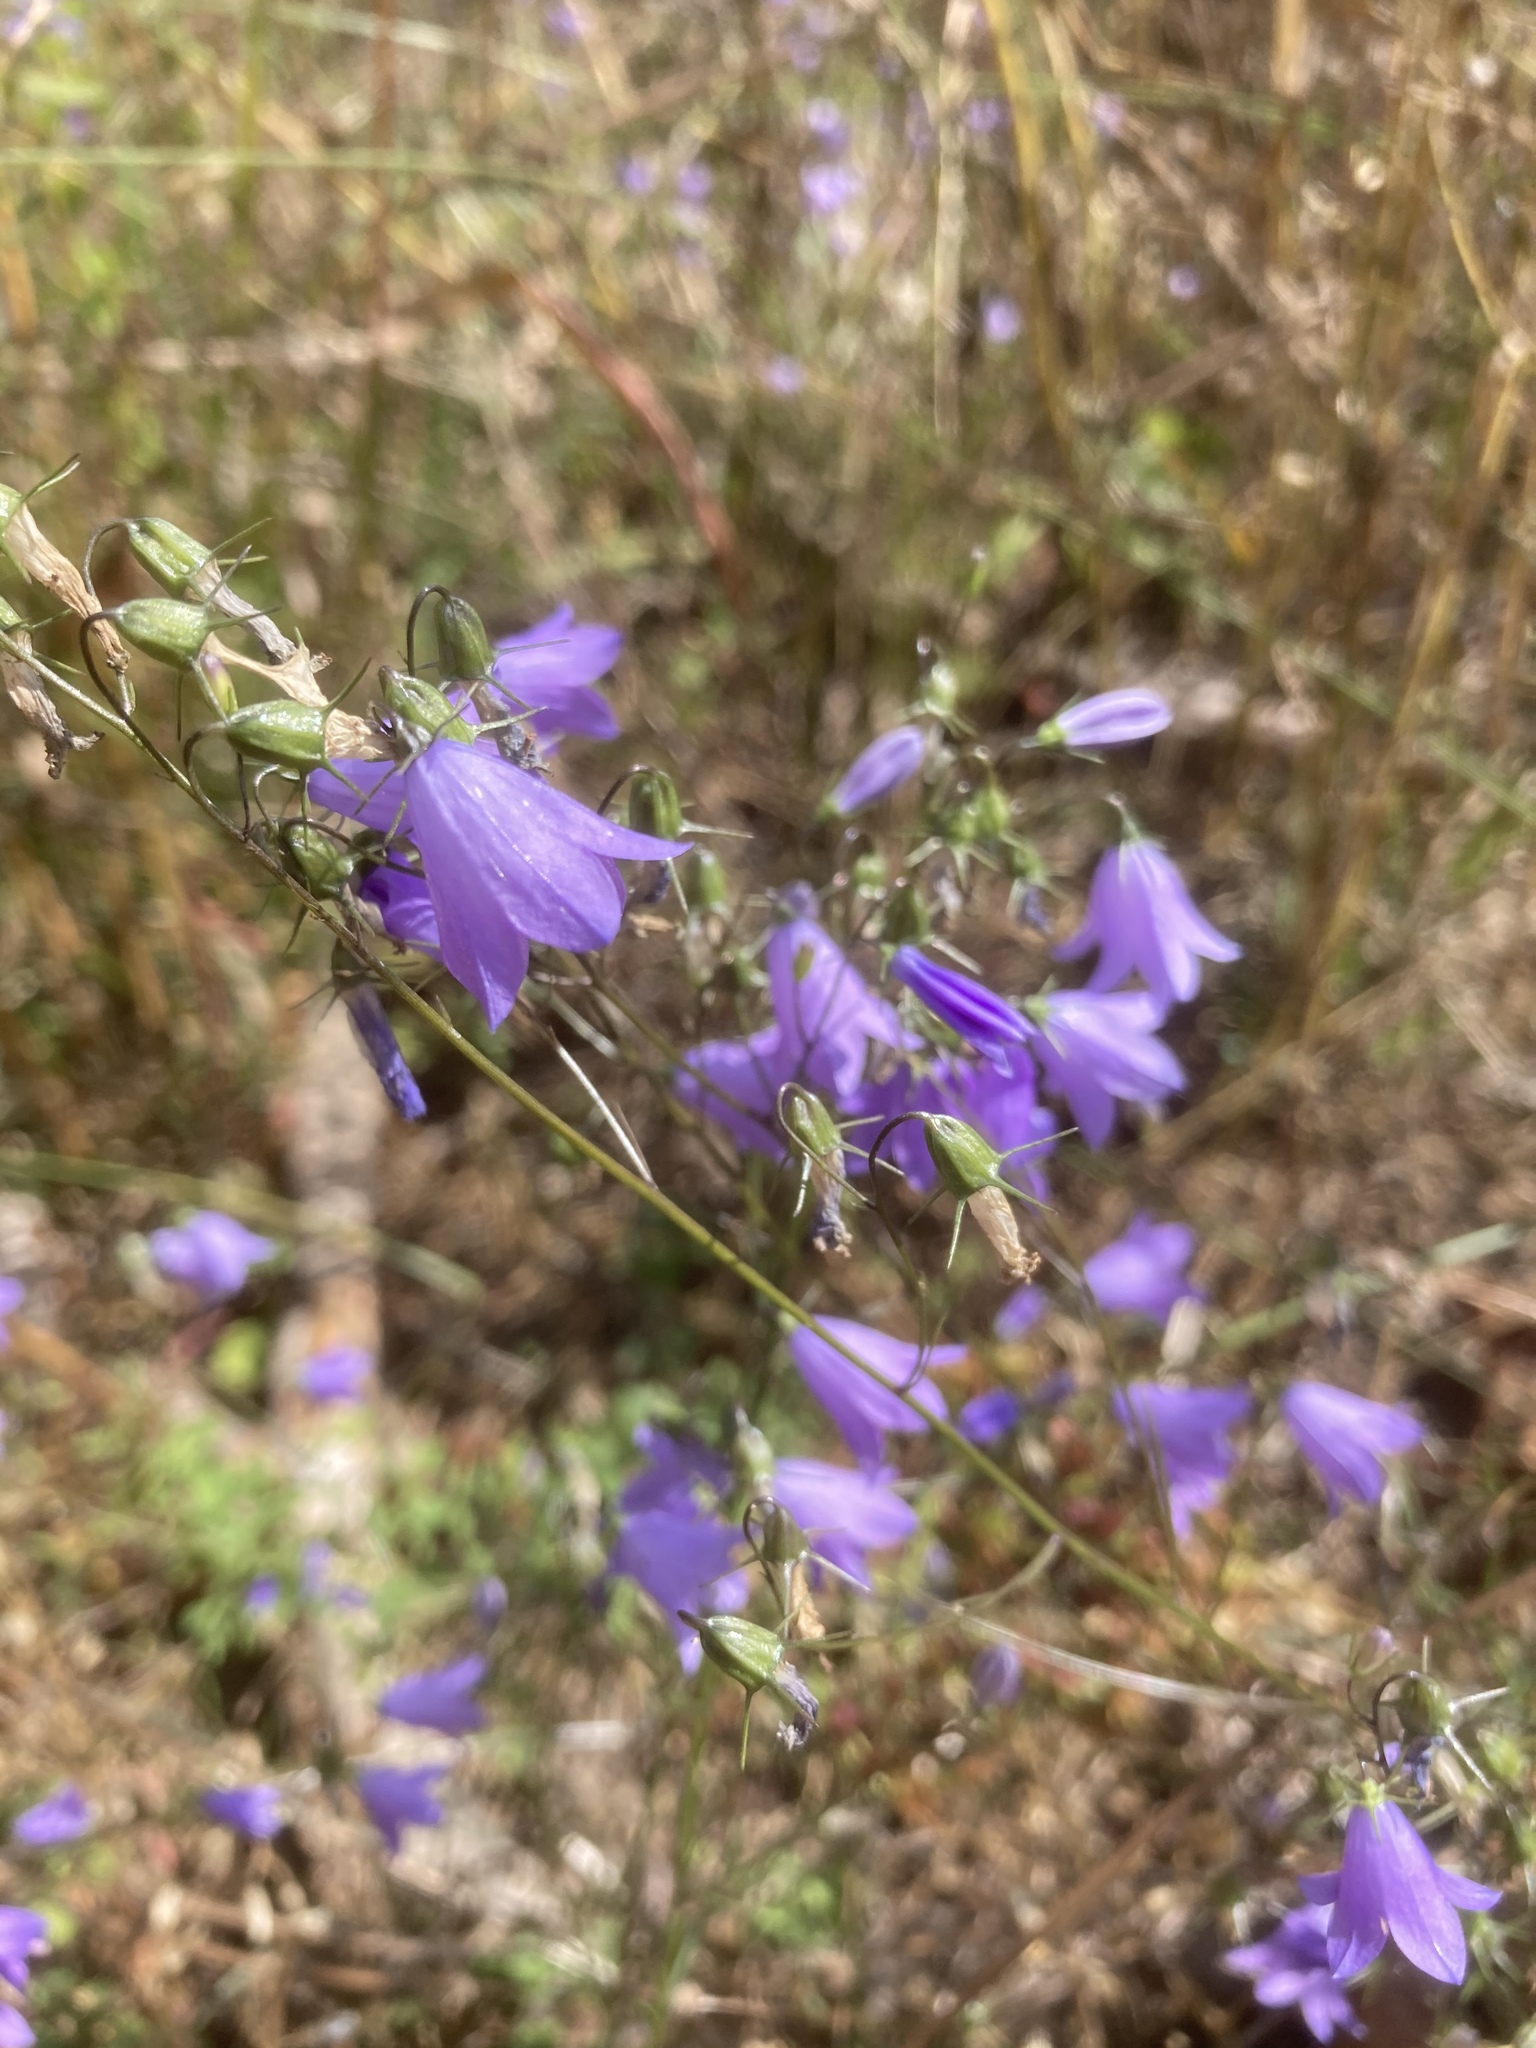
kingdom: Plantae
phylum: Tracheophyta
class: Magnoliopsida
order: Asterales
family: Campanulaceae
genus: Campanula
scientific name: Campanula rotundifolia
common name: Harebell
